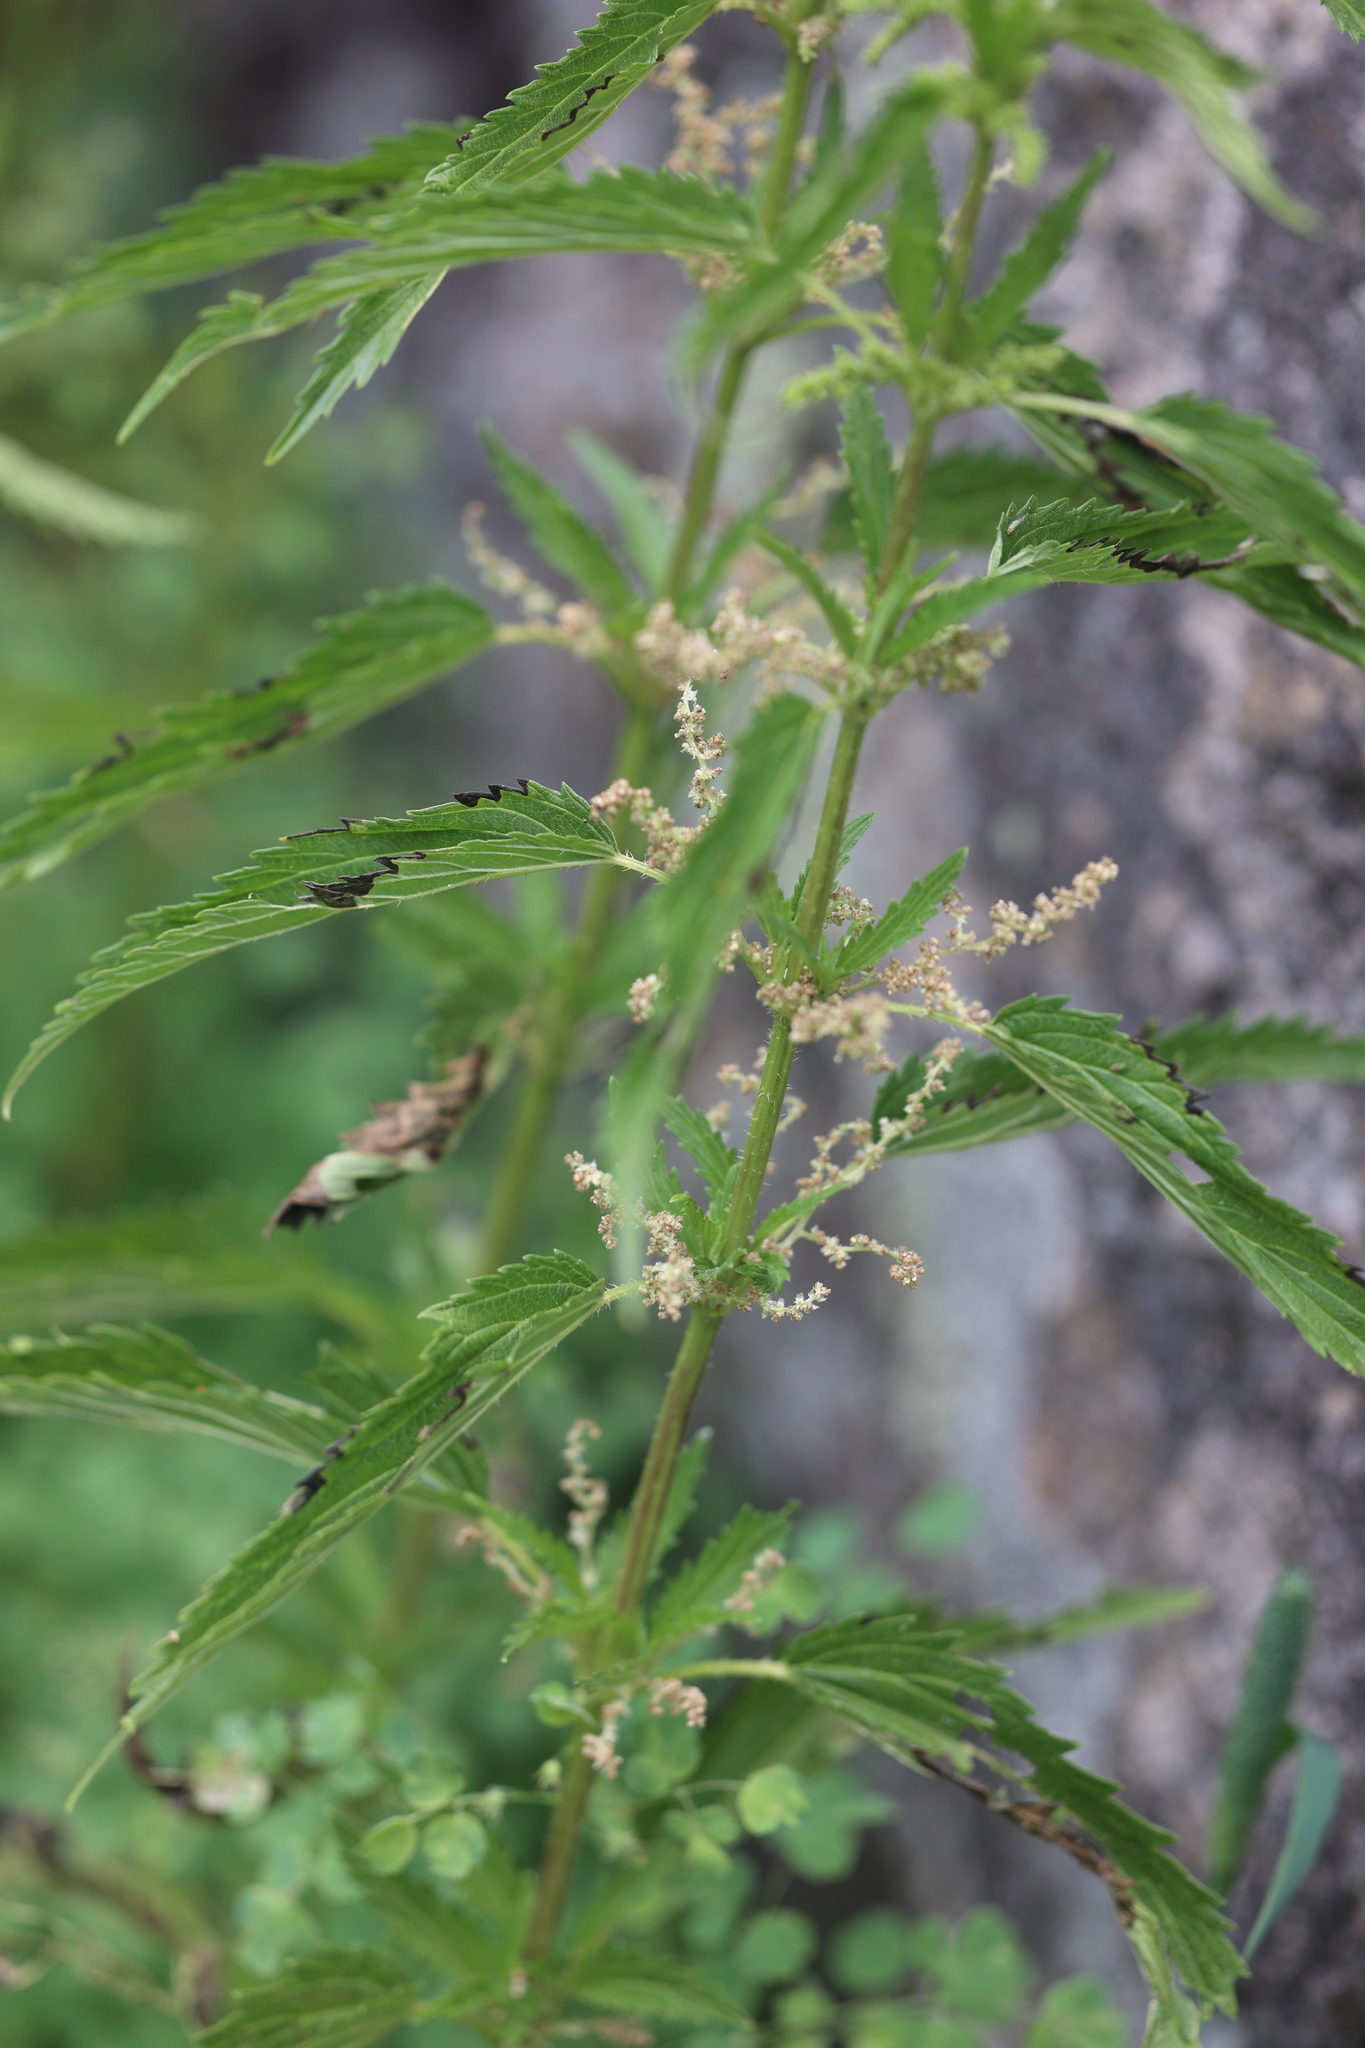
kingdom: Plantae
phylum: Tracheophyta
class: Magnoliopsida
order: Rosales
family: Urticaceae
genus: Urtica
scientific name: Urtica gracilis
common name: Slender stinging nettle
